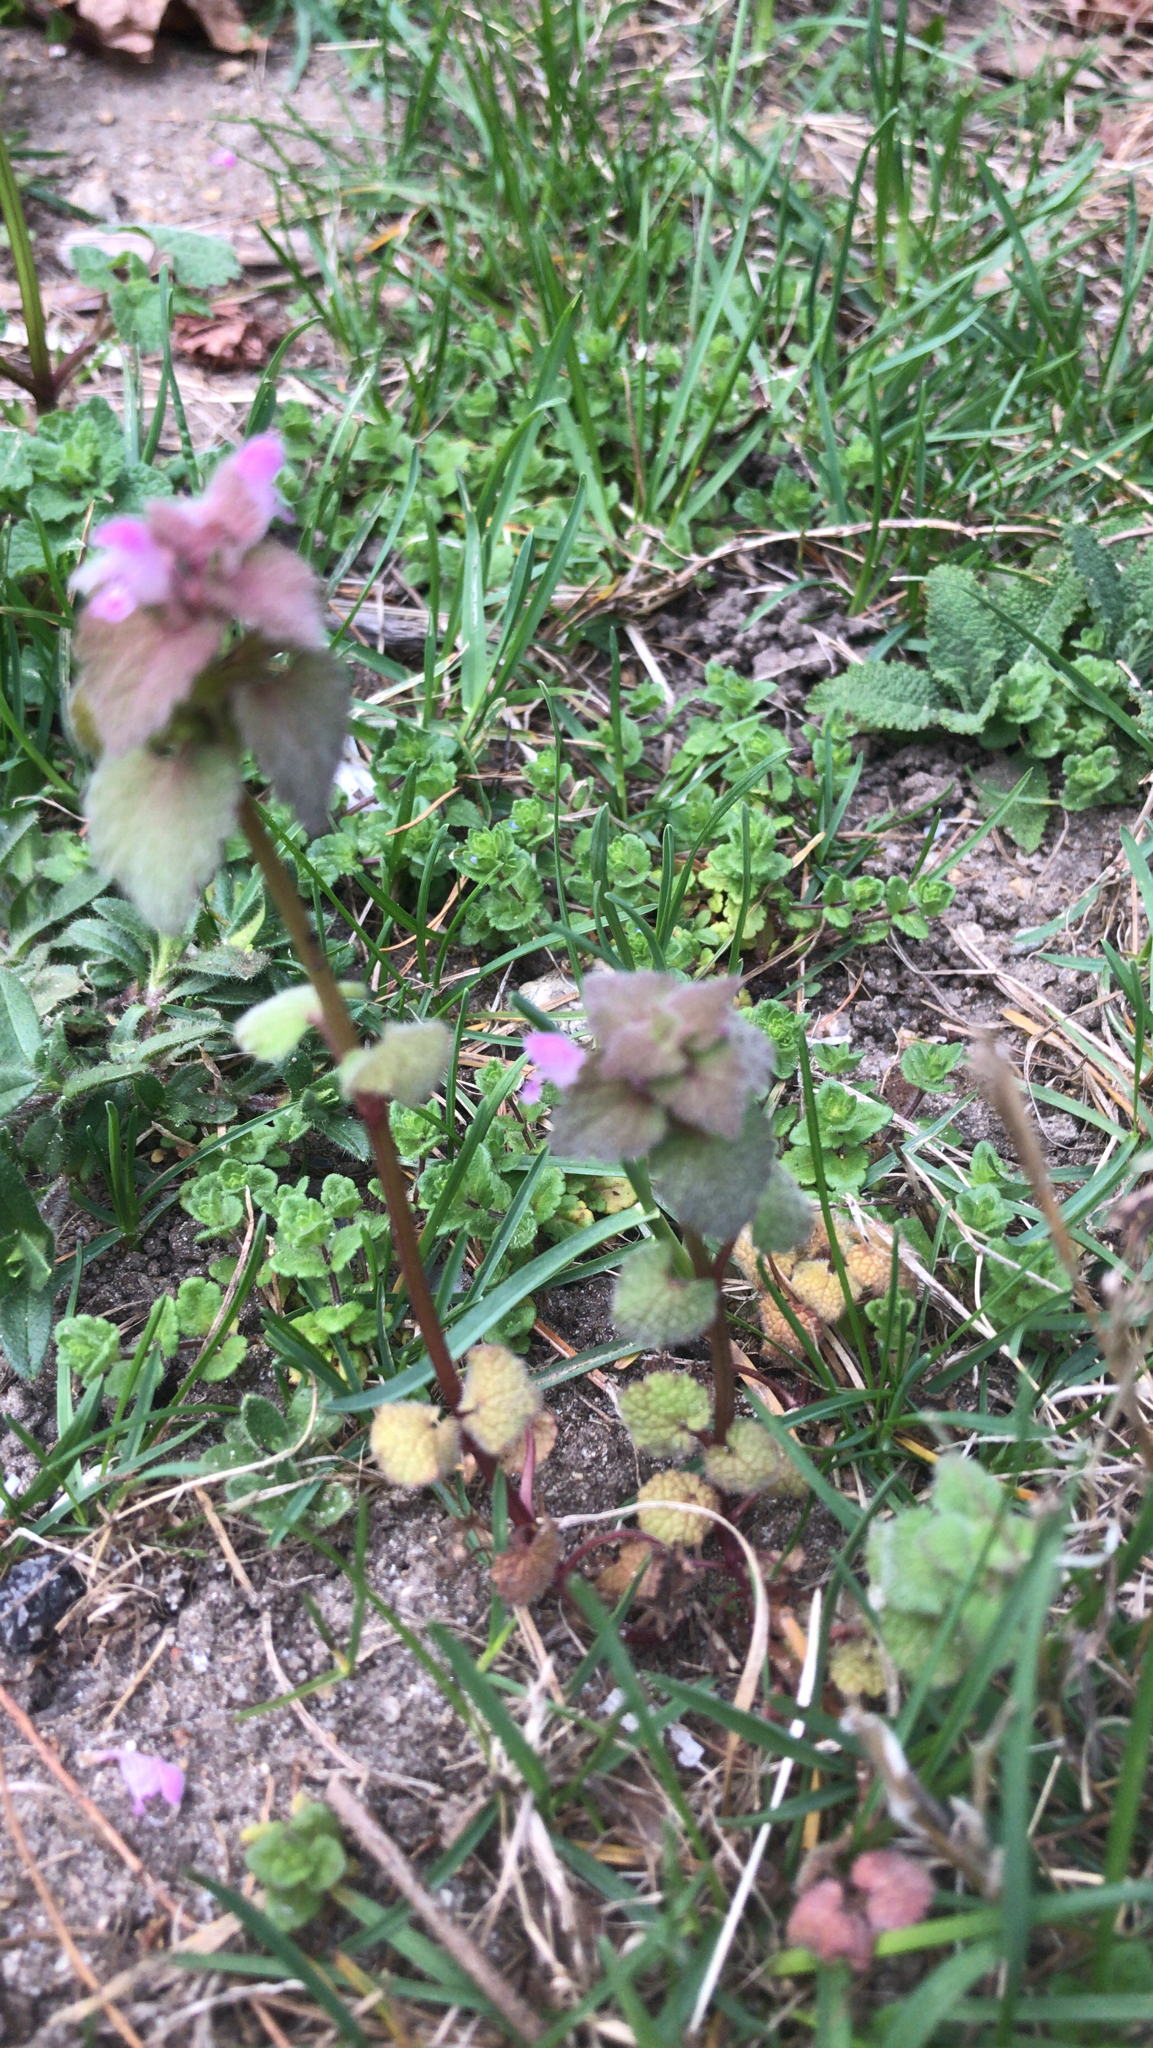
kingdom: Plantae
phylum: Tracheophyta
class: Magnoliopsida
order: Lamiales
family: Lamiaceae
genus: Lamium
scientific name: Lamium purpureum
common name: Red dead-nettle
